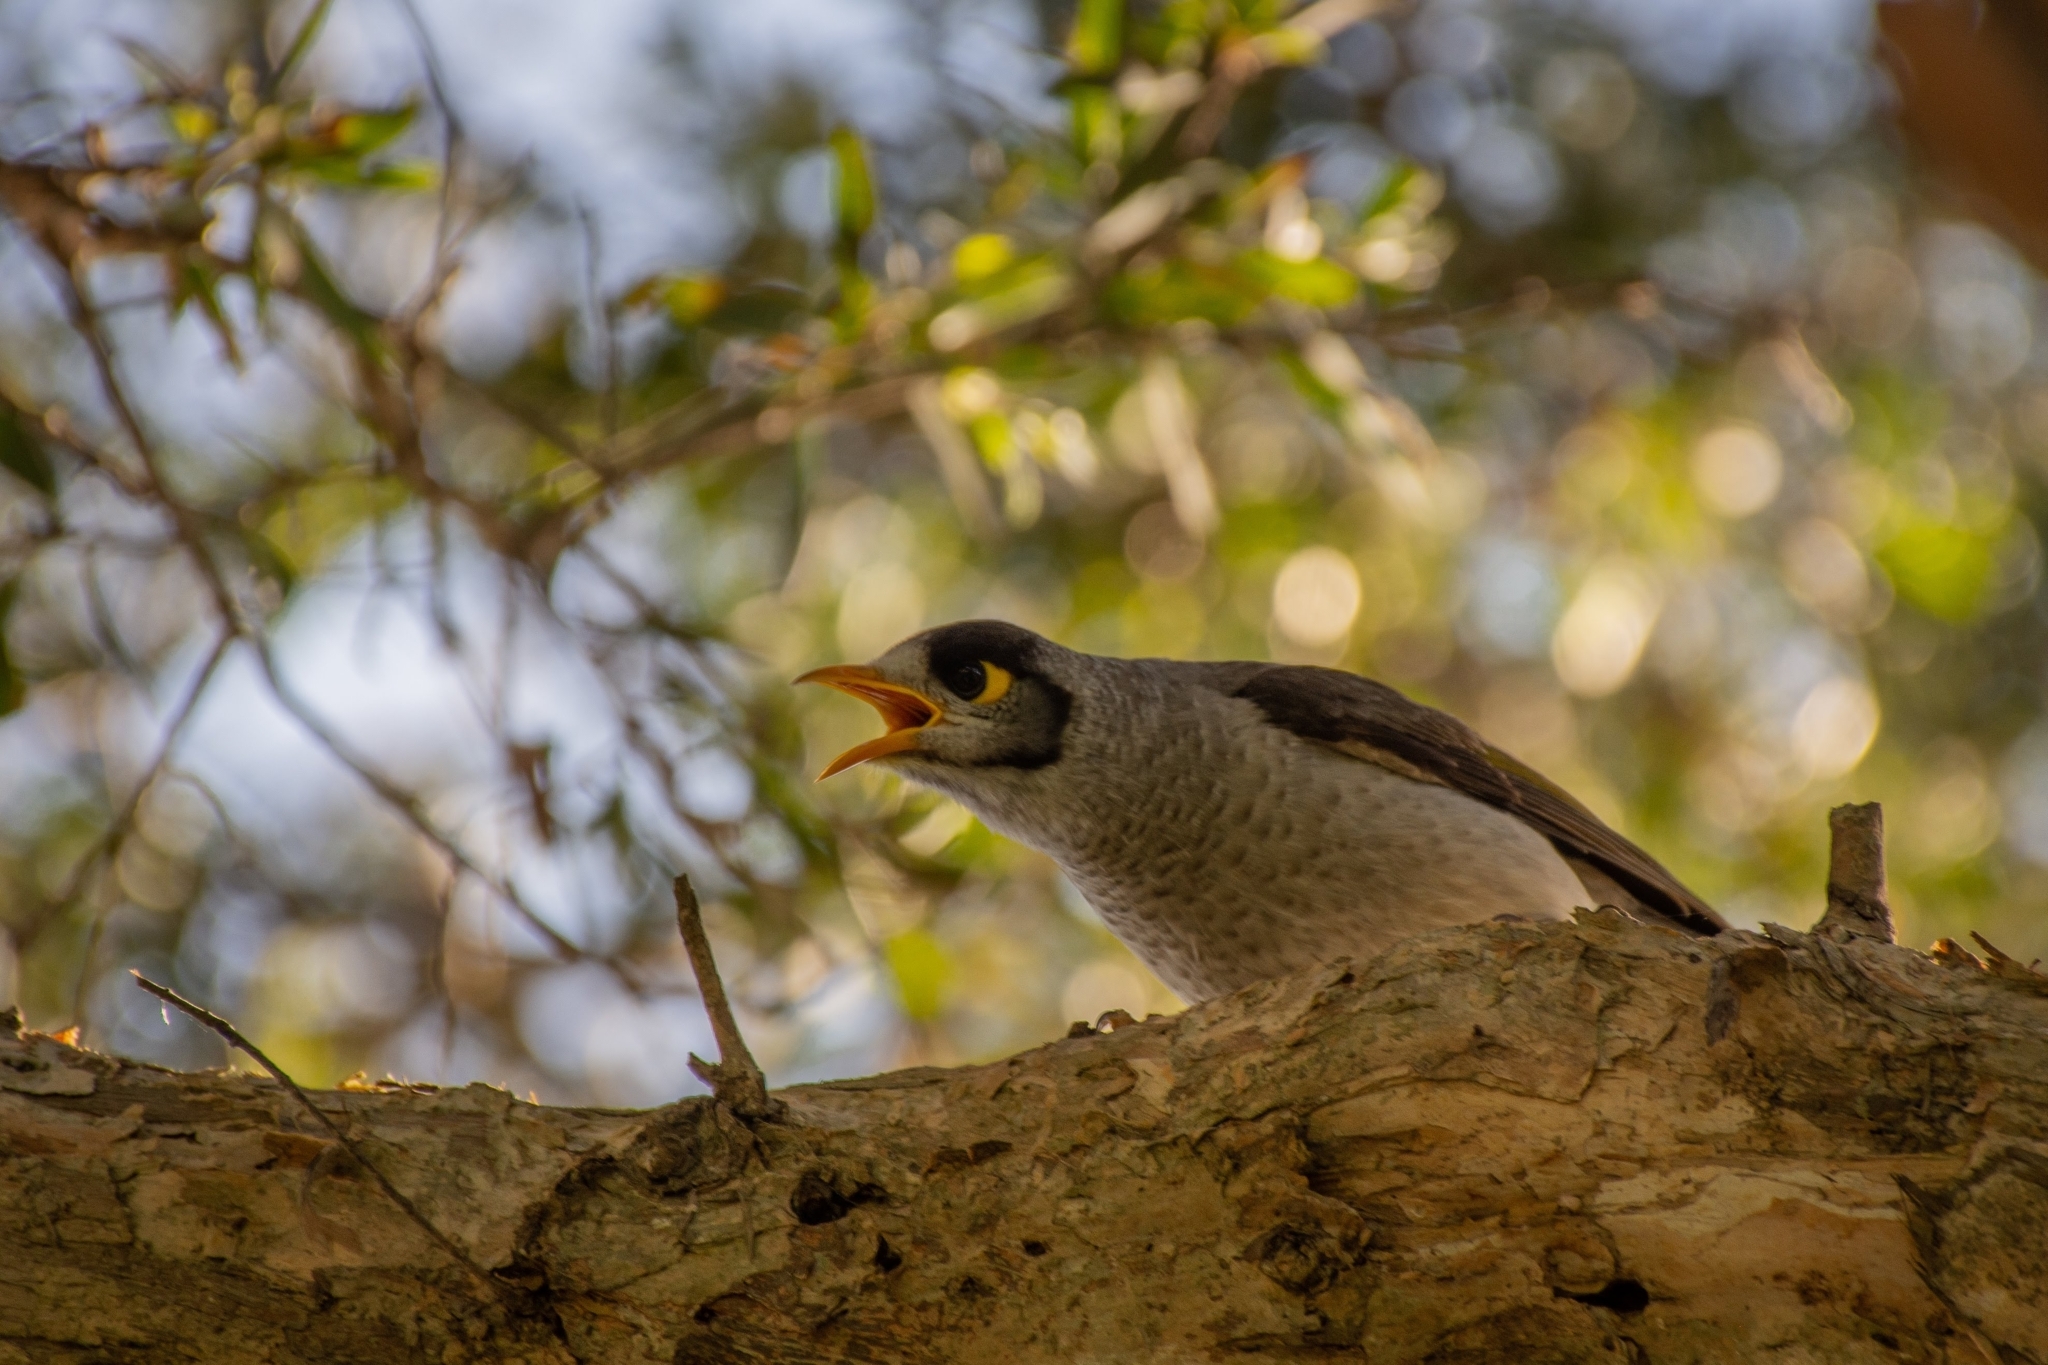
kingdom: Animalia
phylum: Chordata
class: Aves
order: Passeriformes
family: Meliphagidae
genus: Manorina
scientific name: Manorina melanocephala
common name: Noisy miner
